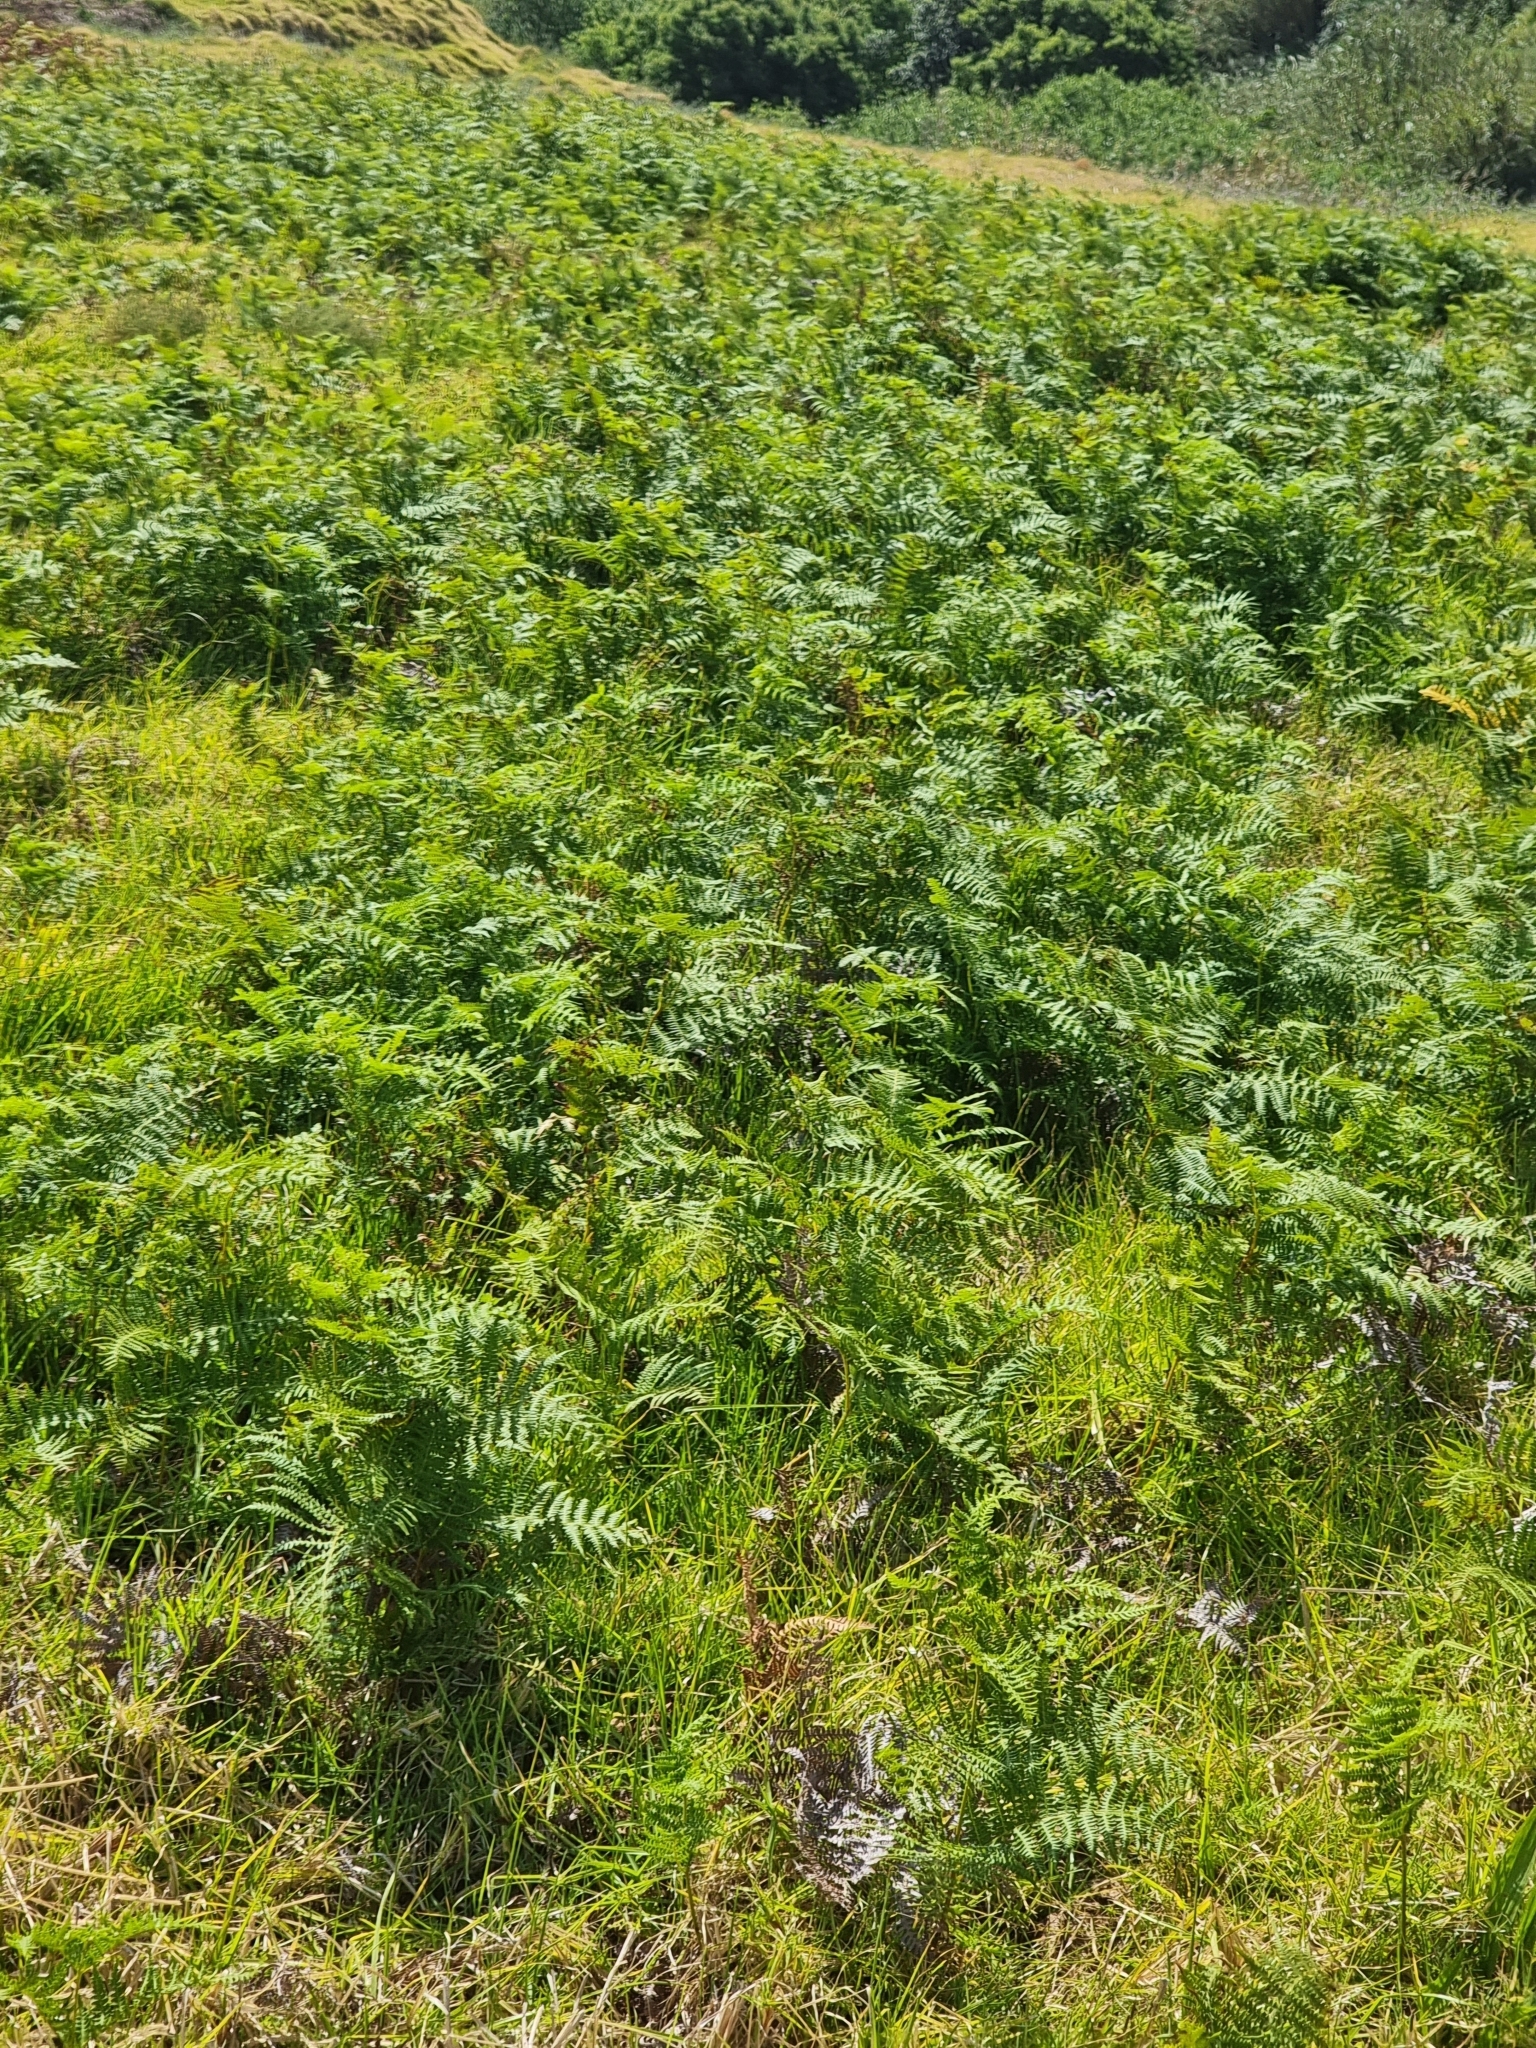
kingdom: Plantae
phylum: Tracheophyta
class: Polypodiopsida
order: Polypodiales
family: Dennstaedtiaceae
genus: Pteridium
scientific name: Pteridium aquilinum
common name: Bracken
